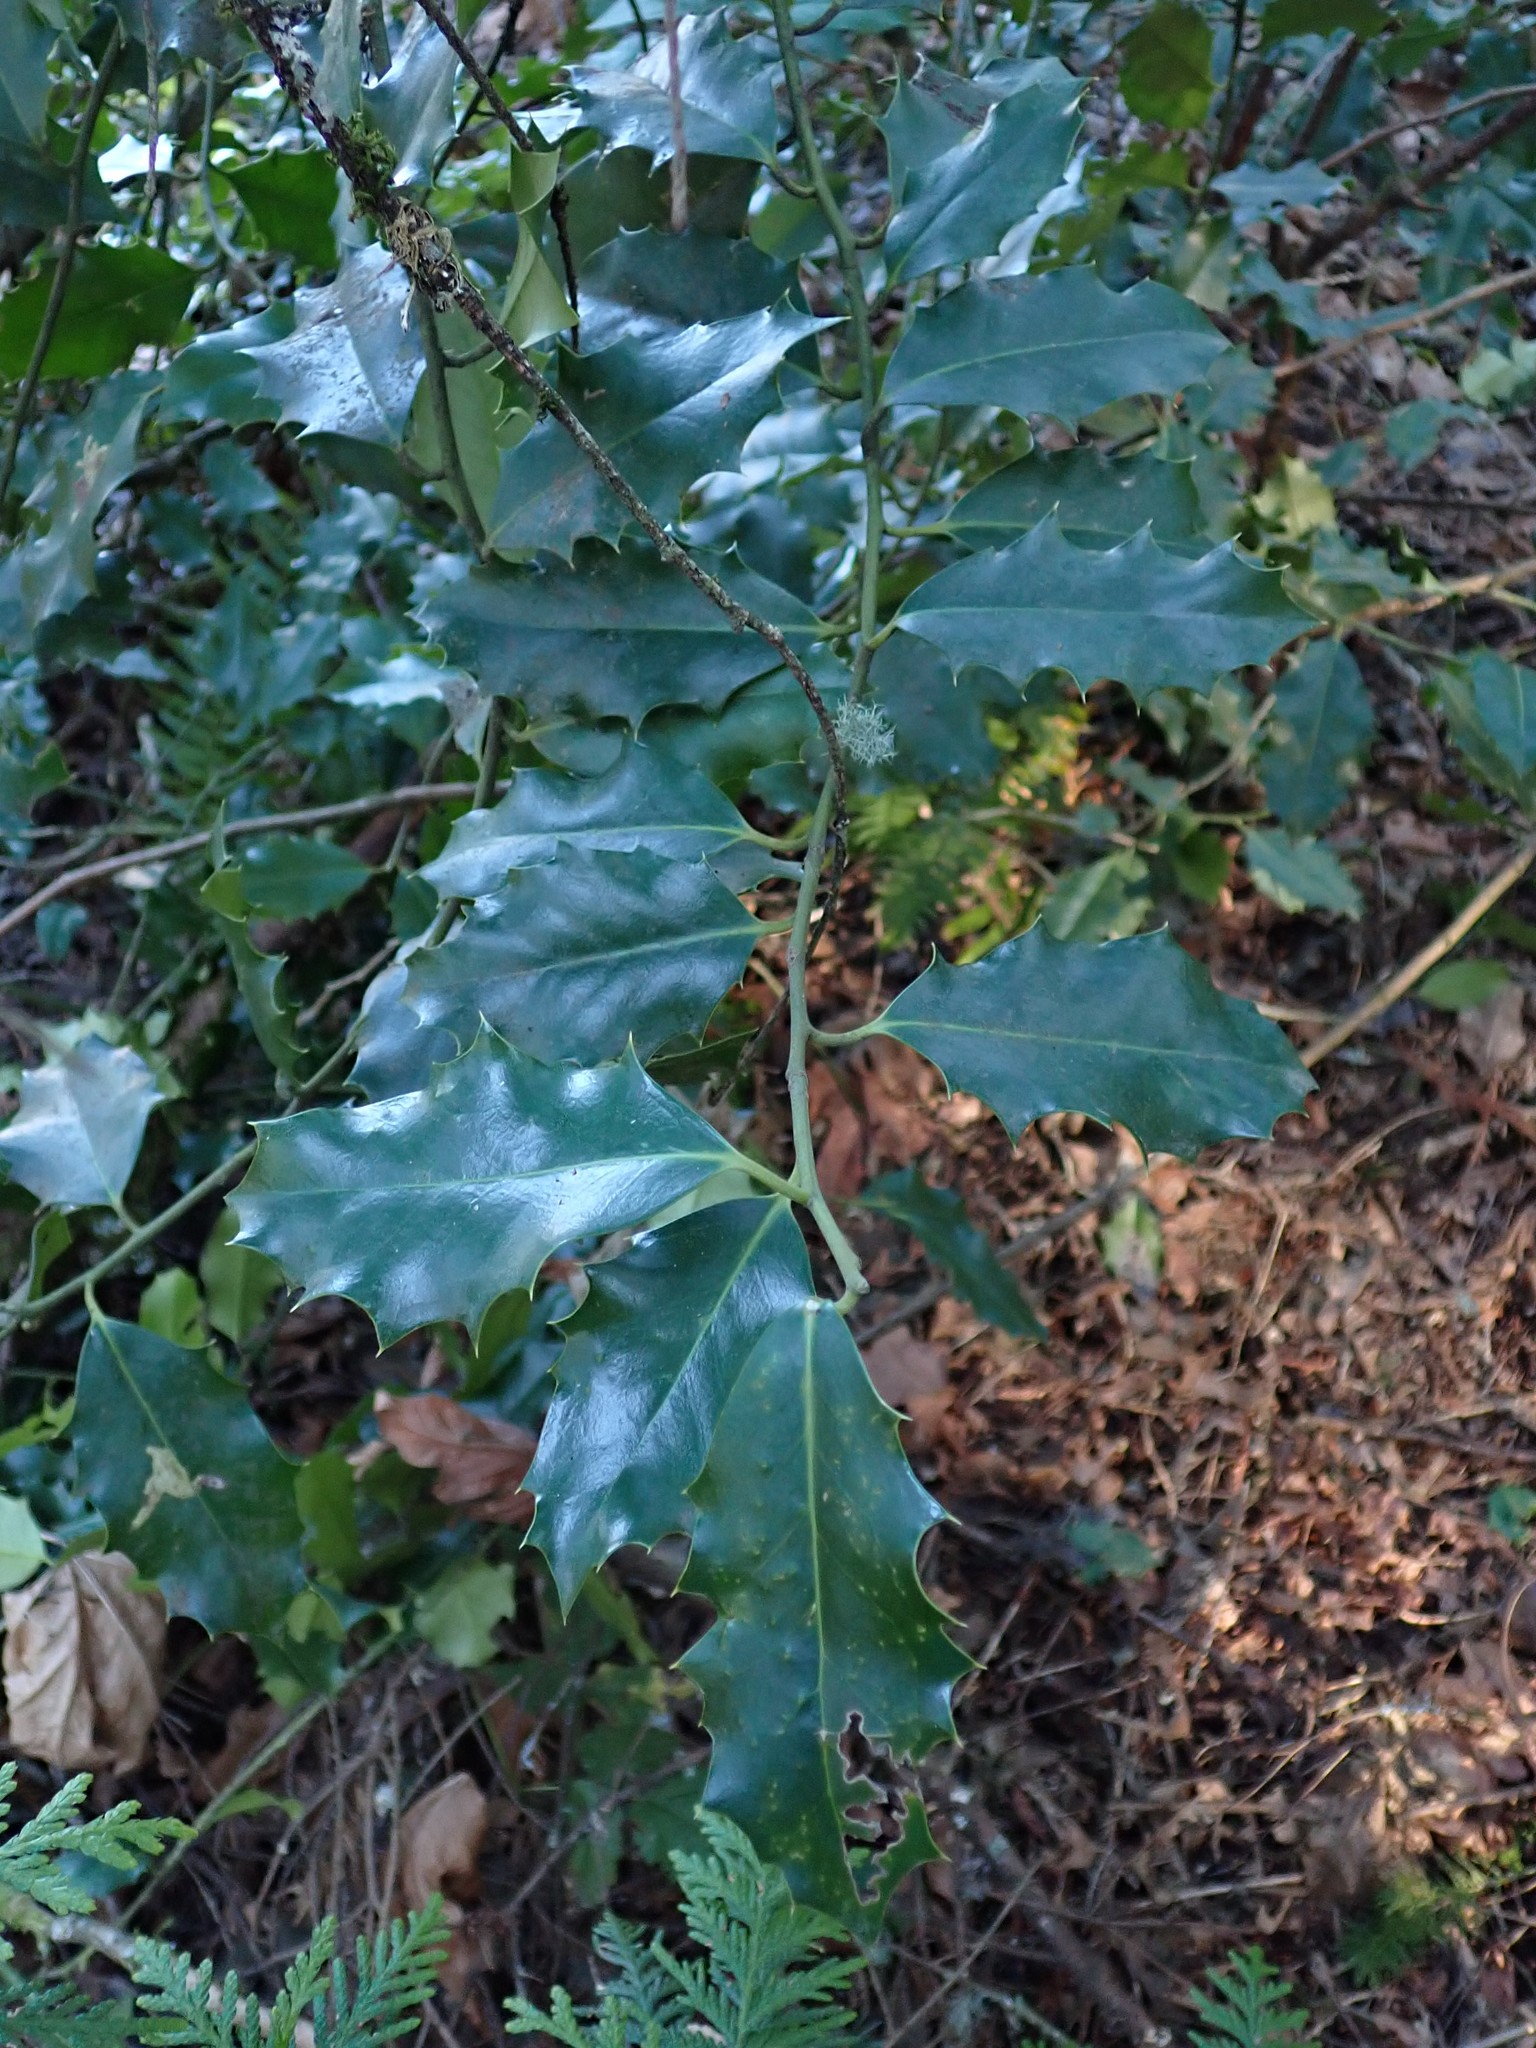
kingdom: Plantae
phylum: Tracheophyta
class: Magnoliopsida
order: Aquifoliales
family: Aquifoliaceae
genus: Ilex
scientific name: Ilex aquifolium
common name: English holly
